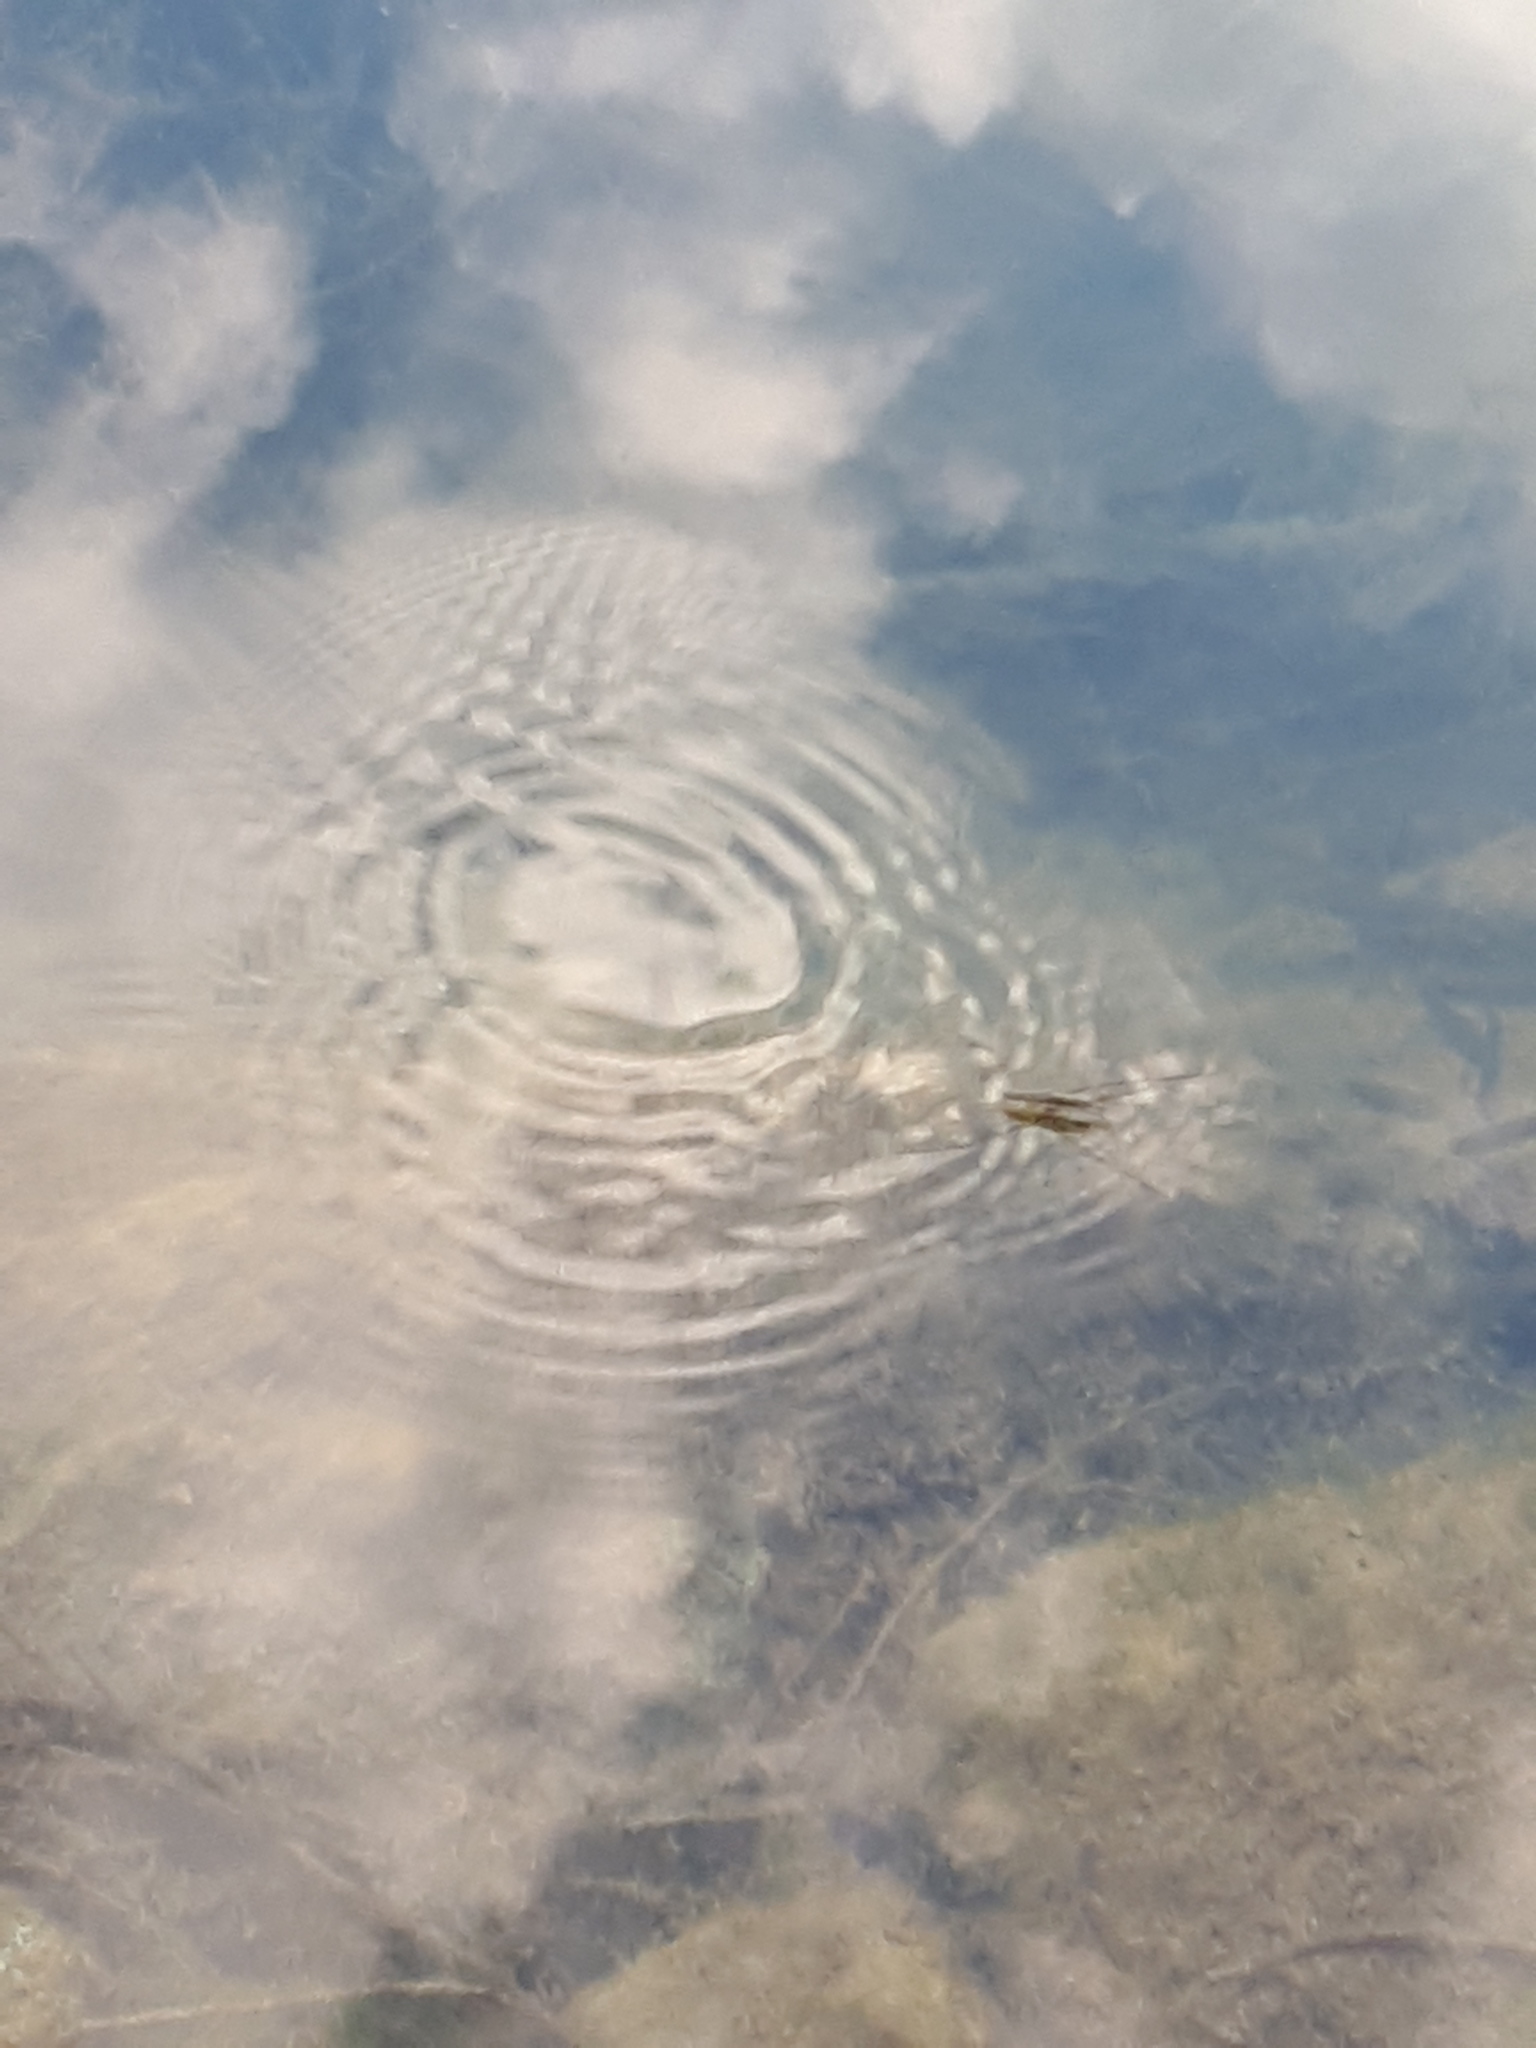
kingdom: Animalia
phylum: Arthropoda
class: Insecta
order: Hemiptera
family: Gerridae
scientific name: Gerridae
